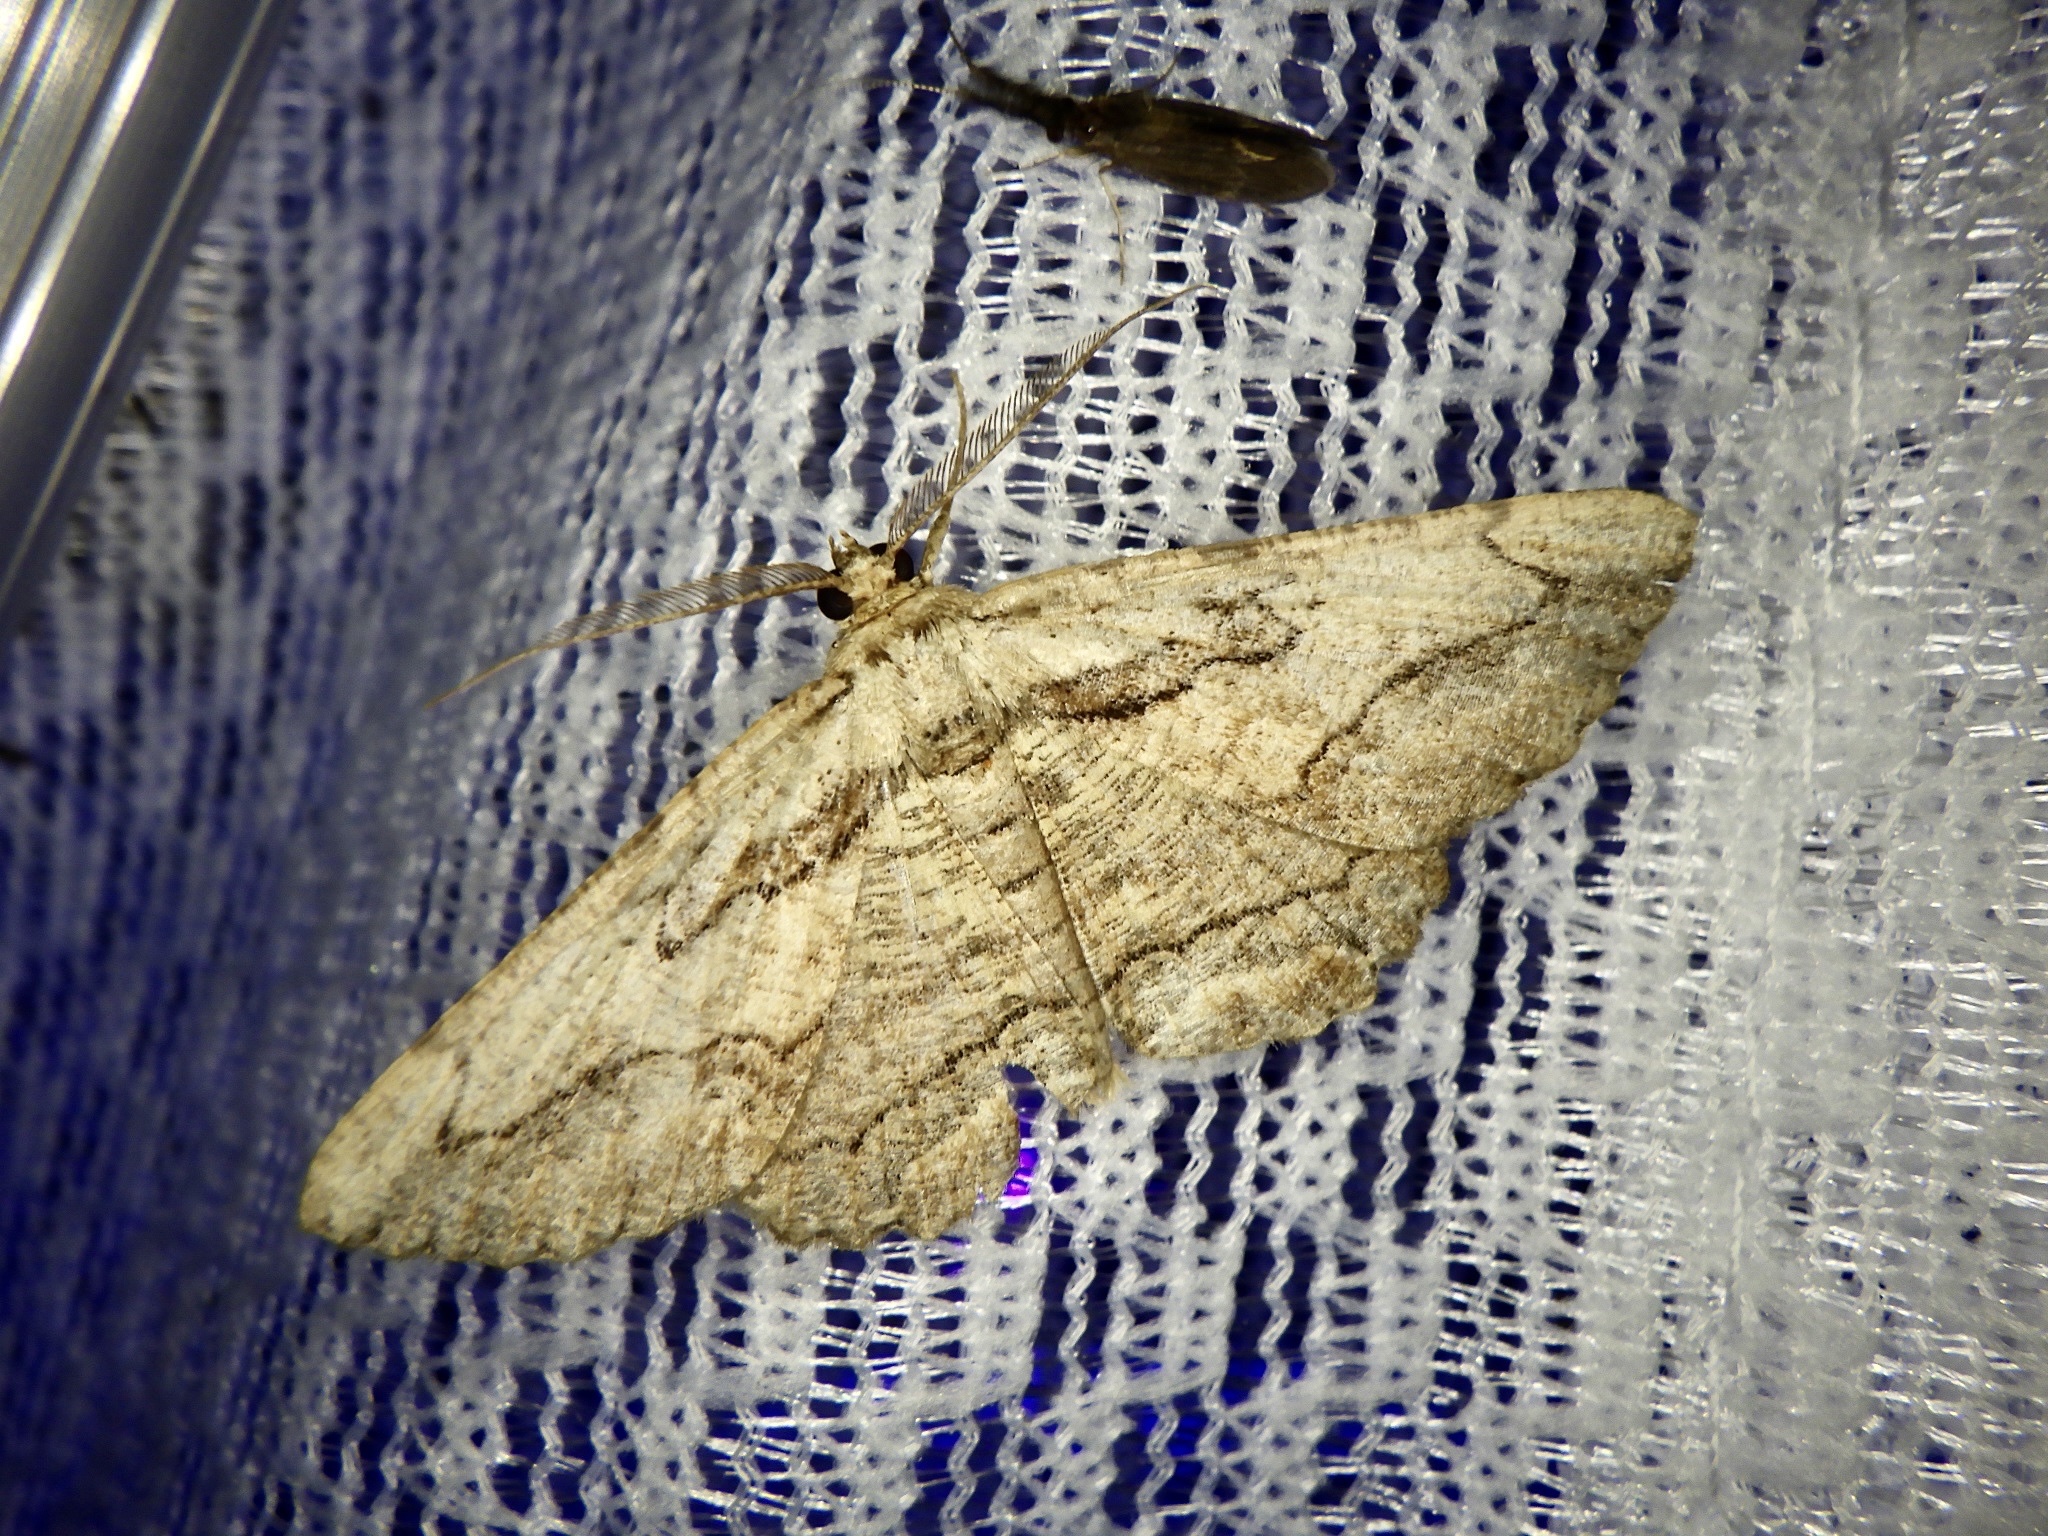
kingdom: Animalia
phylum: Arthropoda
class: Insecta
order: Lepidoptera
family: Geometridae
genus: Menophra
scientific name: Menophra senilis
